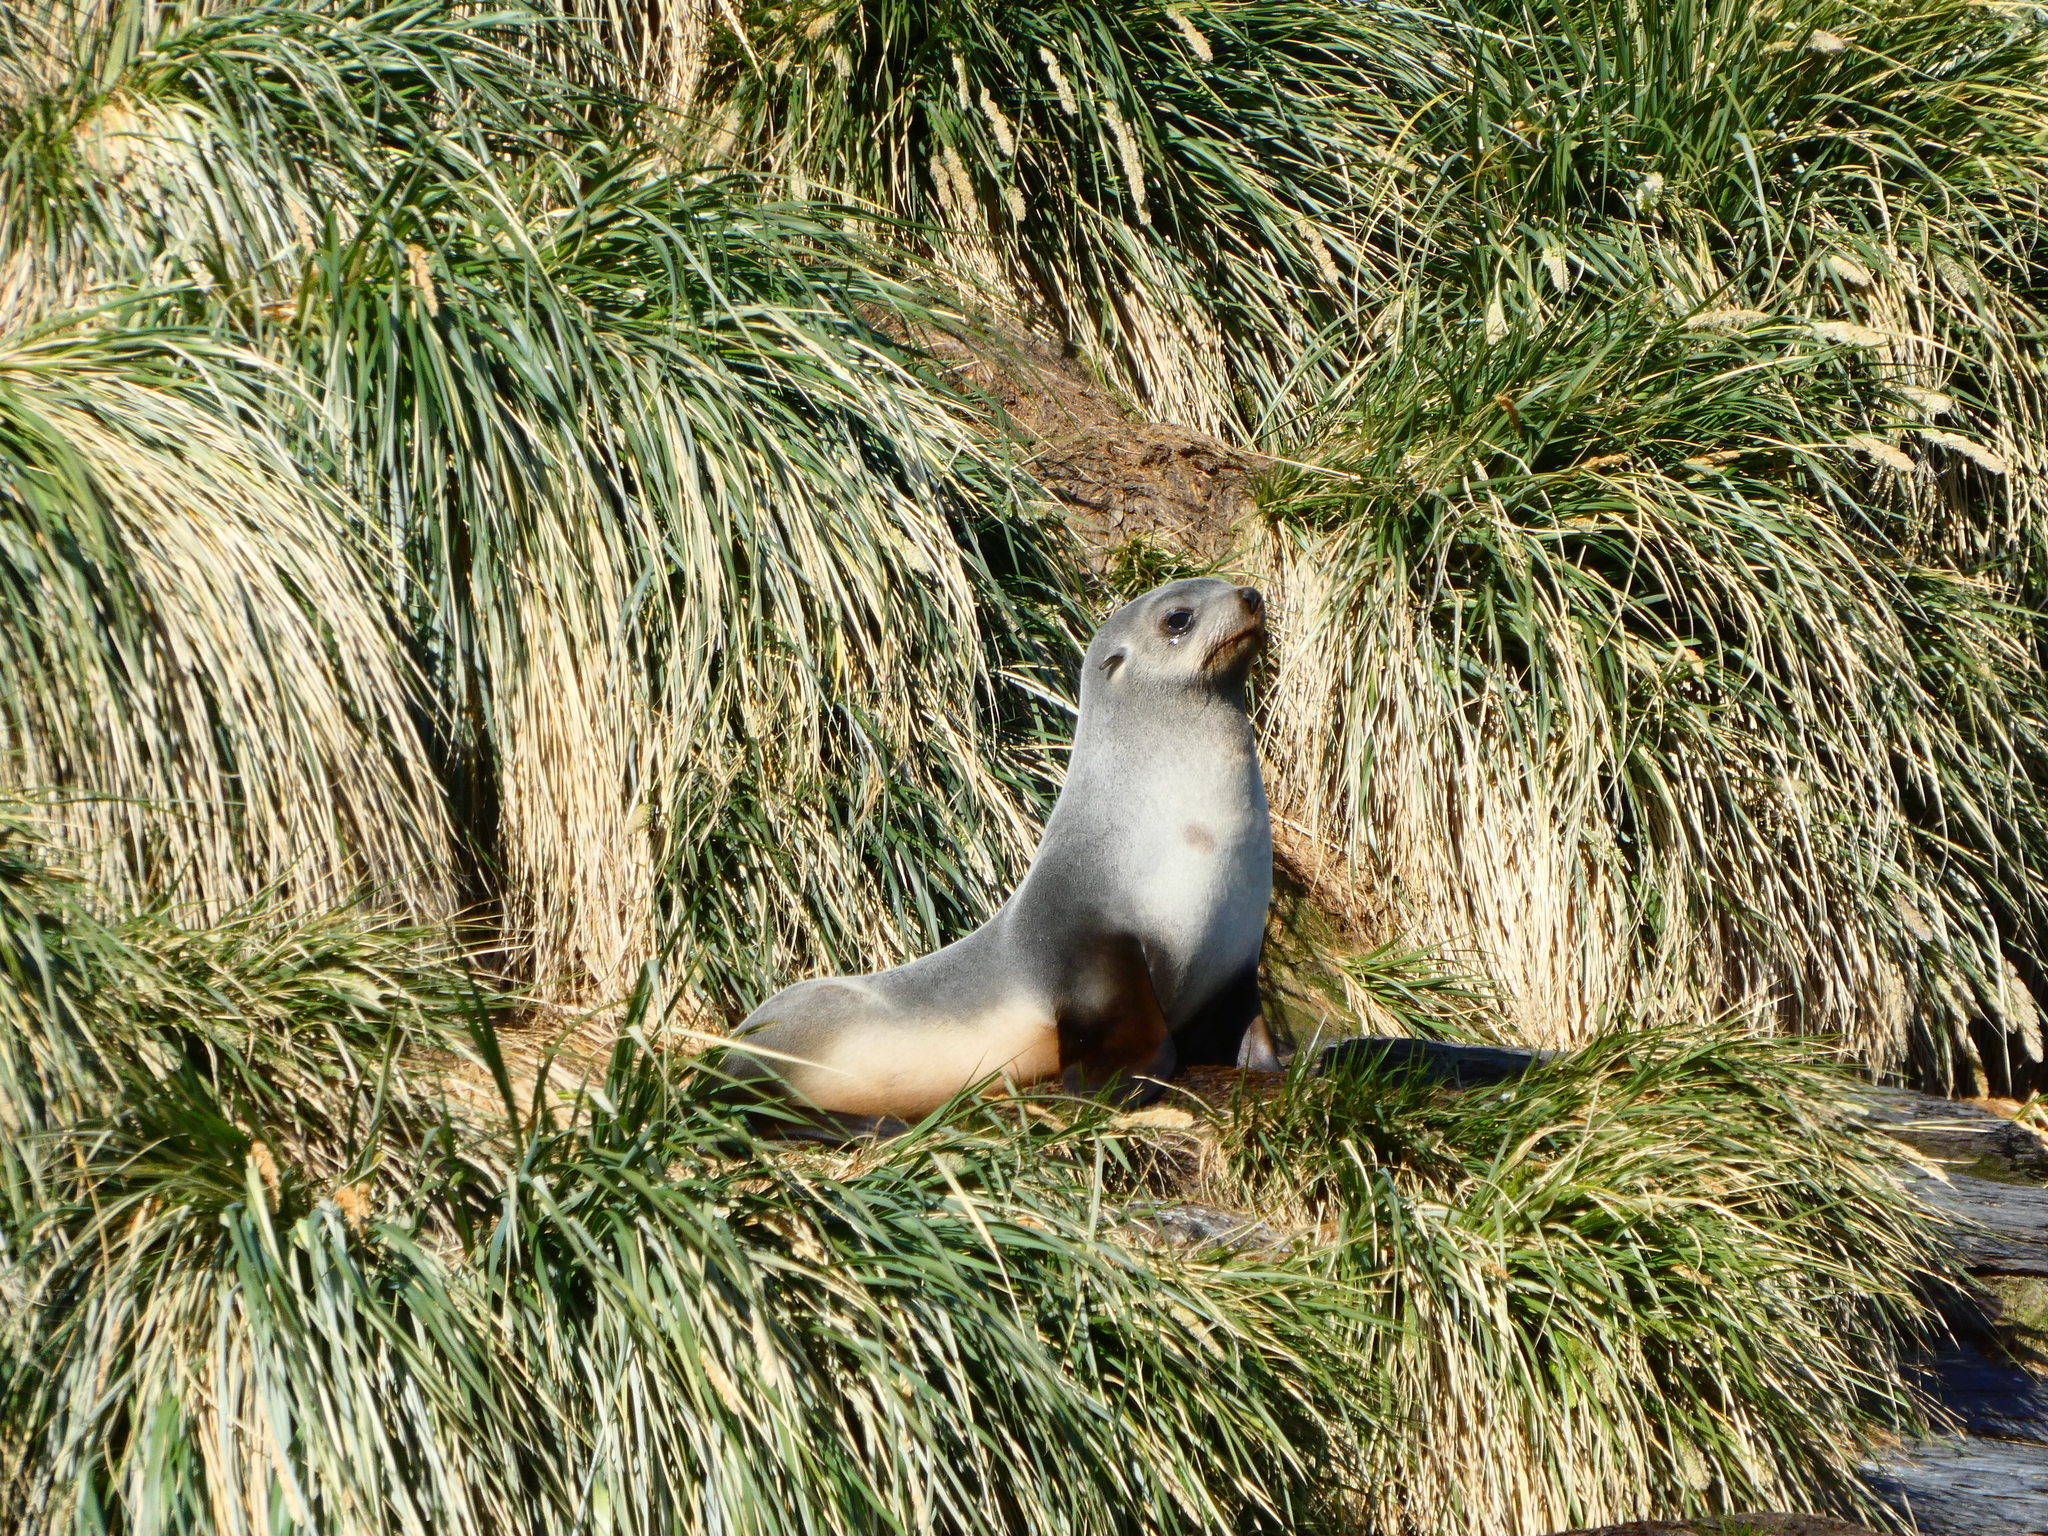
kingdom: Animalia
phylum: Chordata
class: Mammalia
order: Carnivora
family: Otariidae
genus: Arctocephalus
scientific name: Arctocephalus gazella
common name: Antarctic fur seal
